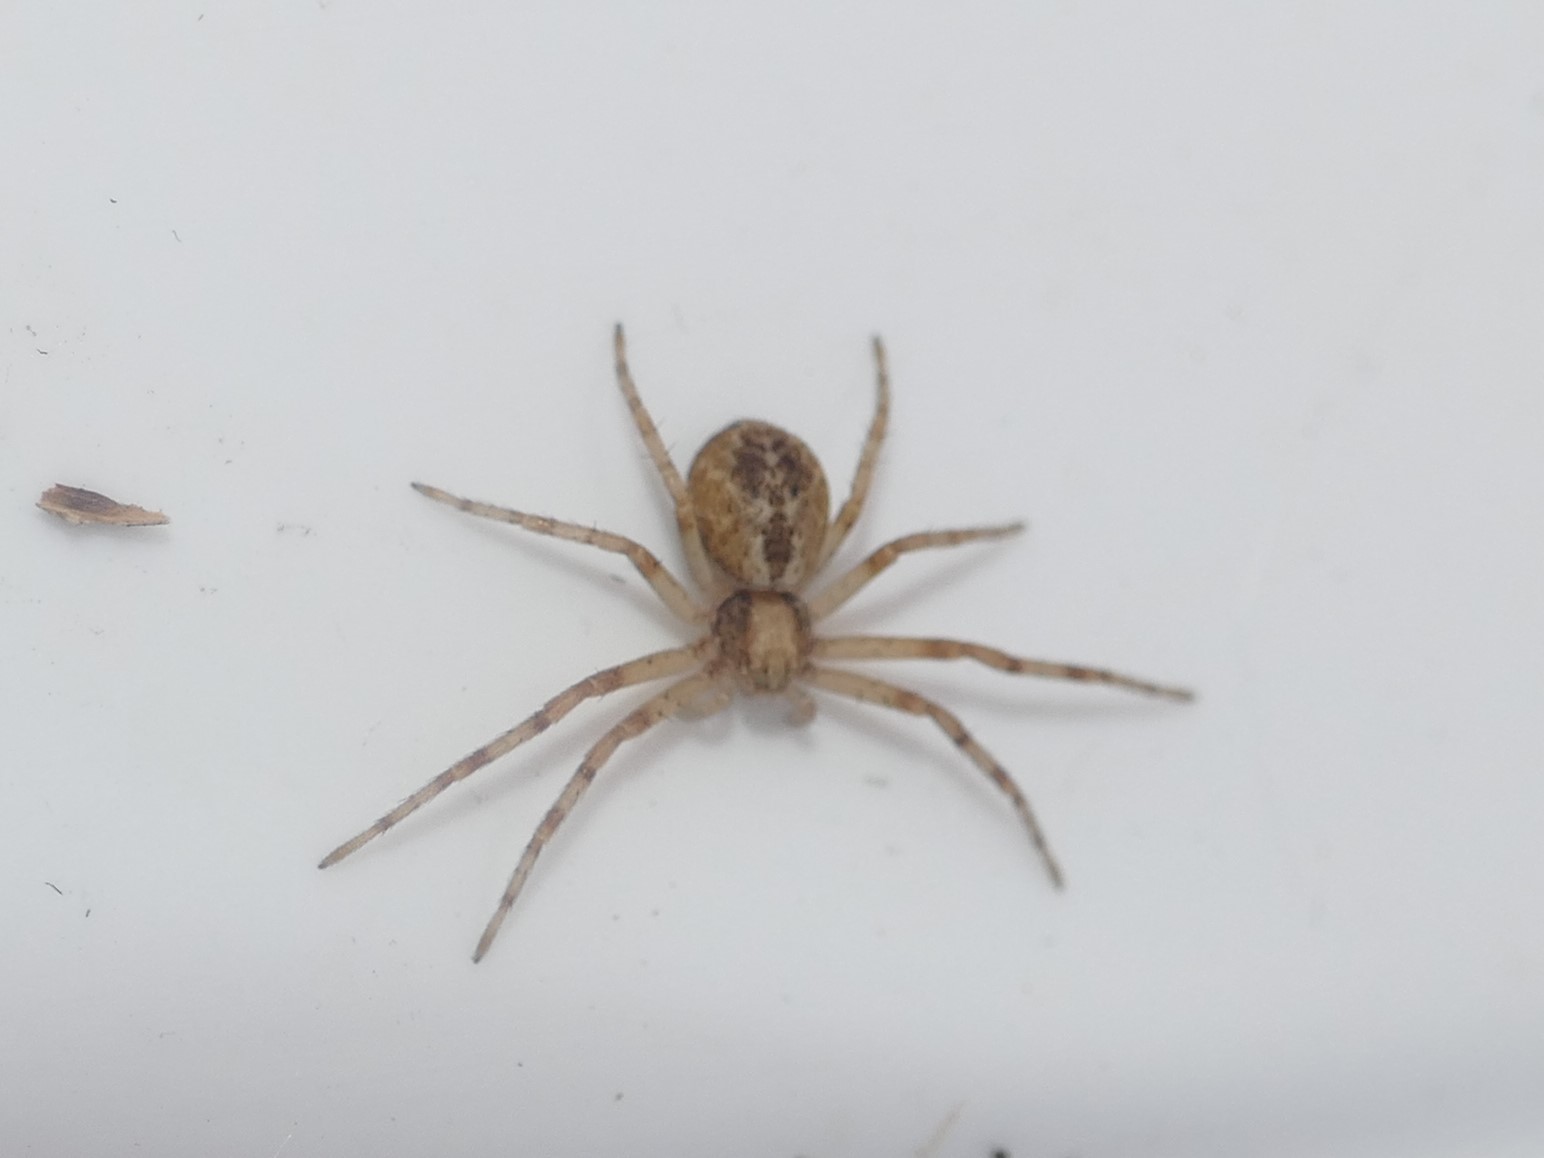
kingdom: Animalia
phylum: Arthropoda
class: Arachnida
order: Araneae
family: Philodromidae
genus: Philodromus
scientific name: Philodromus
